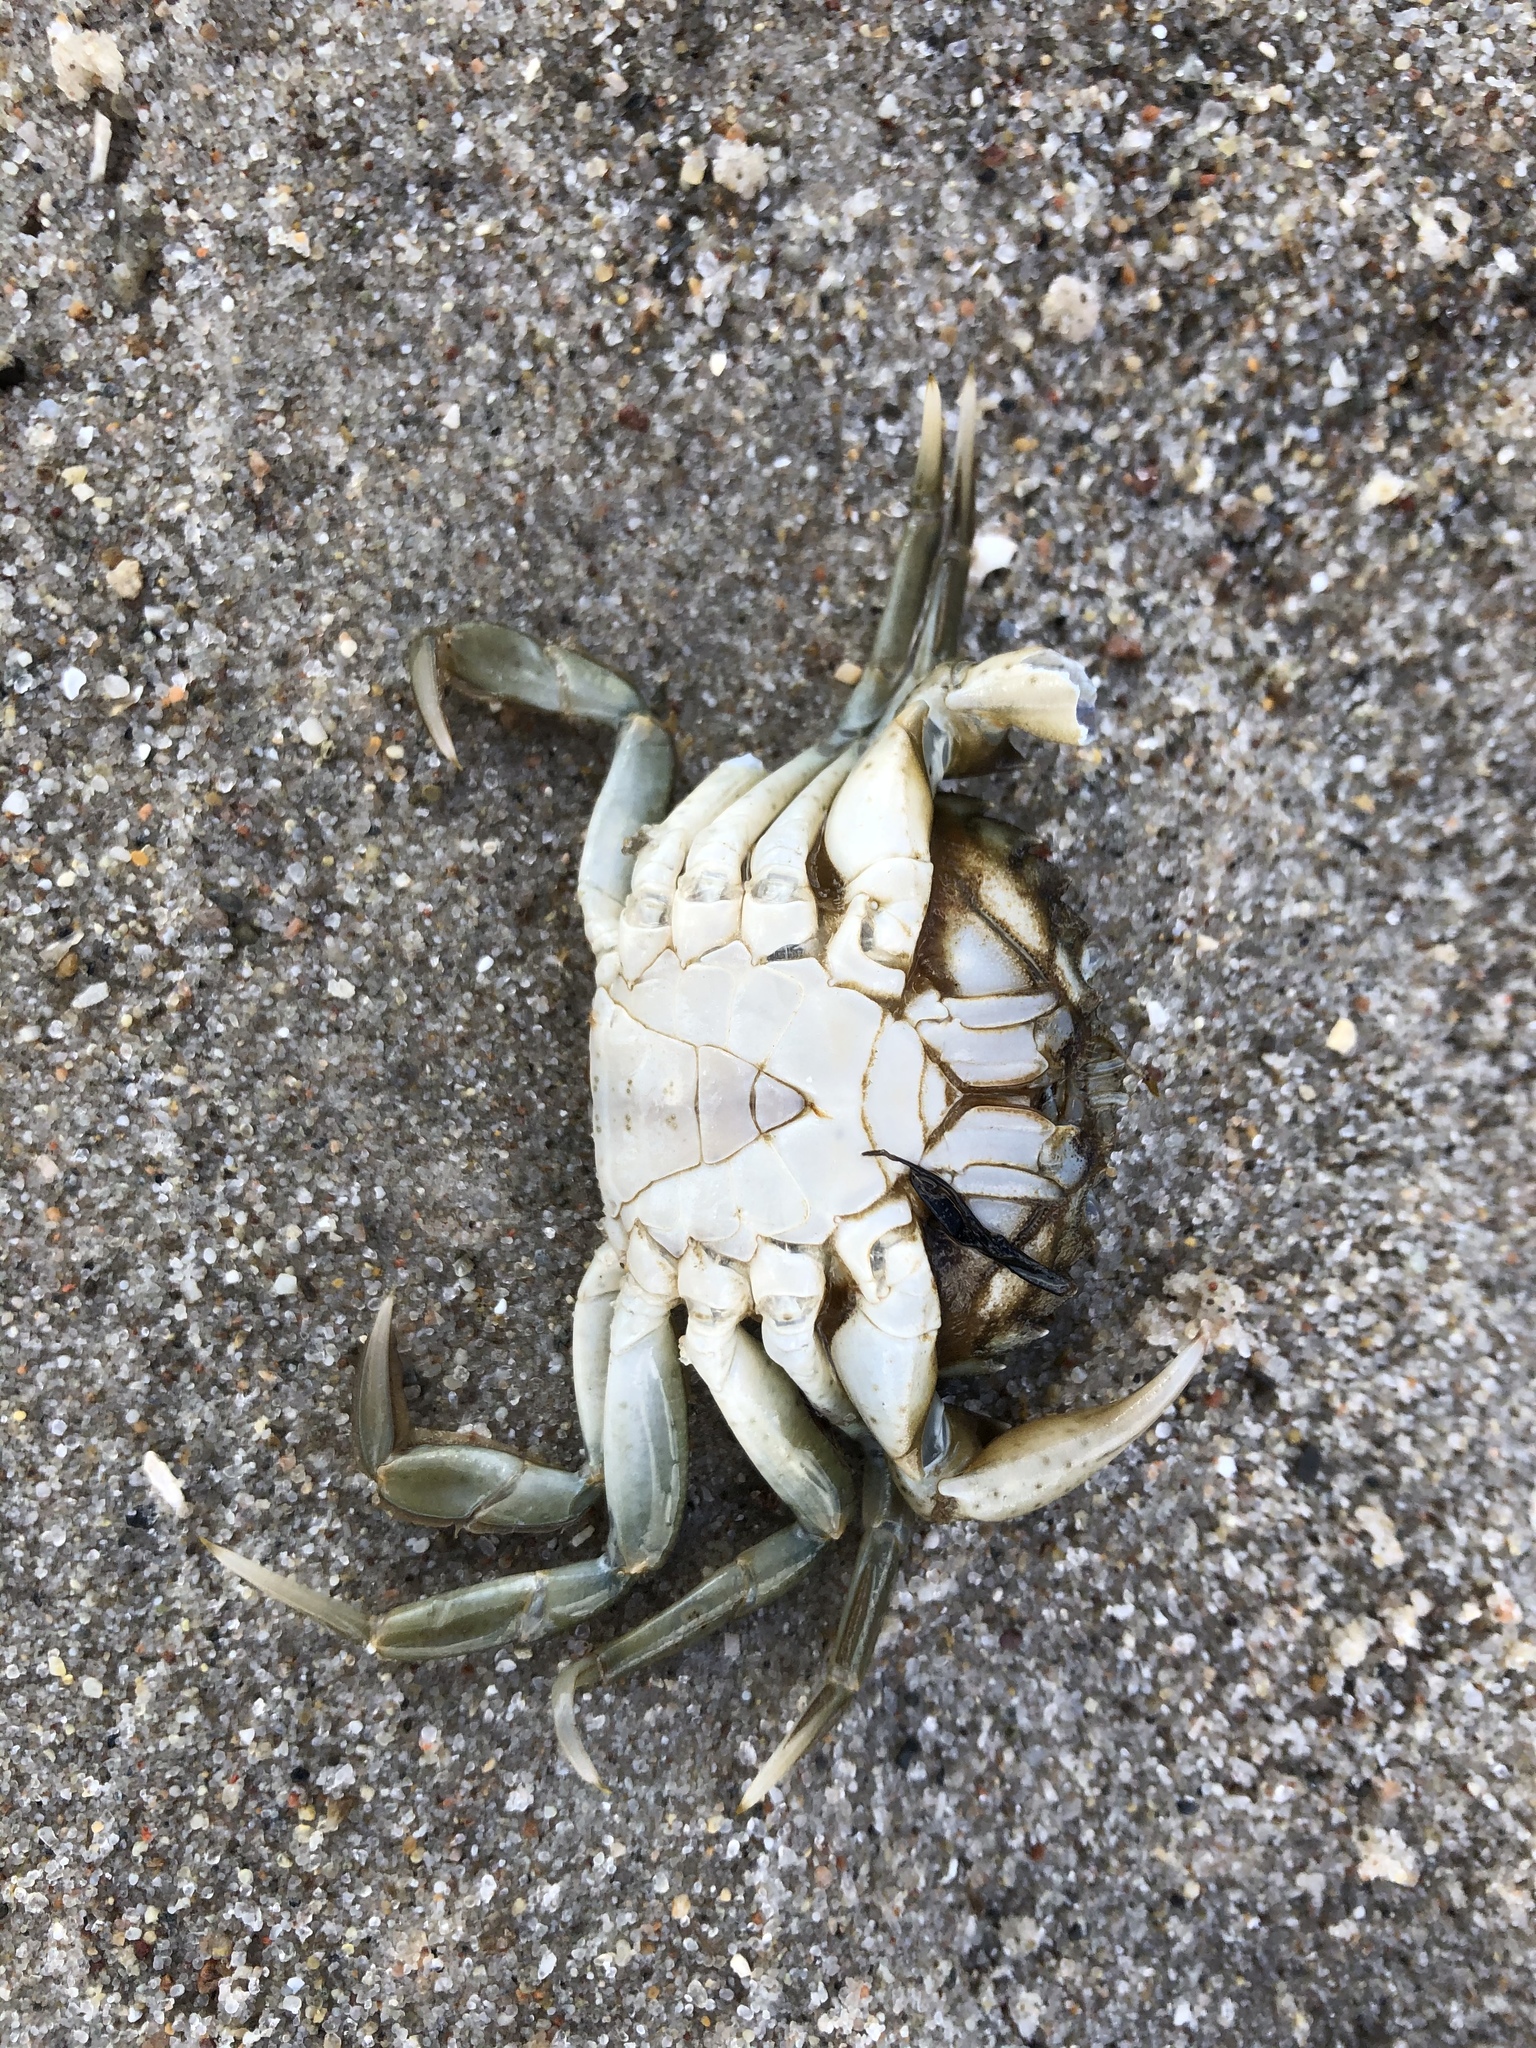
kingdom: Animalia
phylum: Arthropoda
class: Malacostraca
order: Decapoda
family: Carcinidae
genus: Carcinus
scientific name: Carcinus maenas
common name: European green crab
